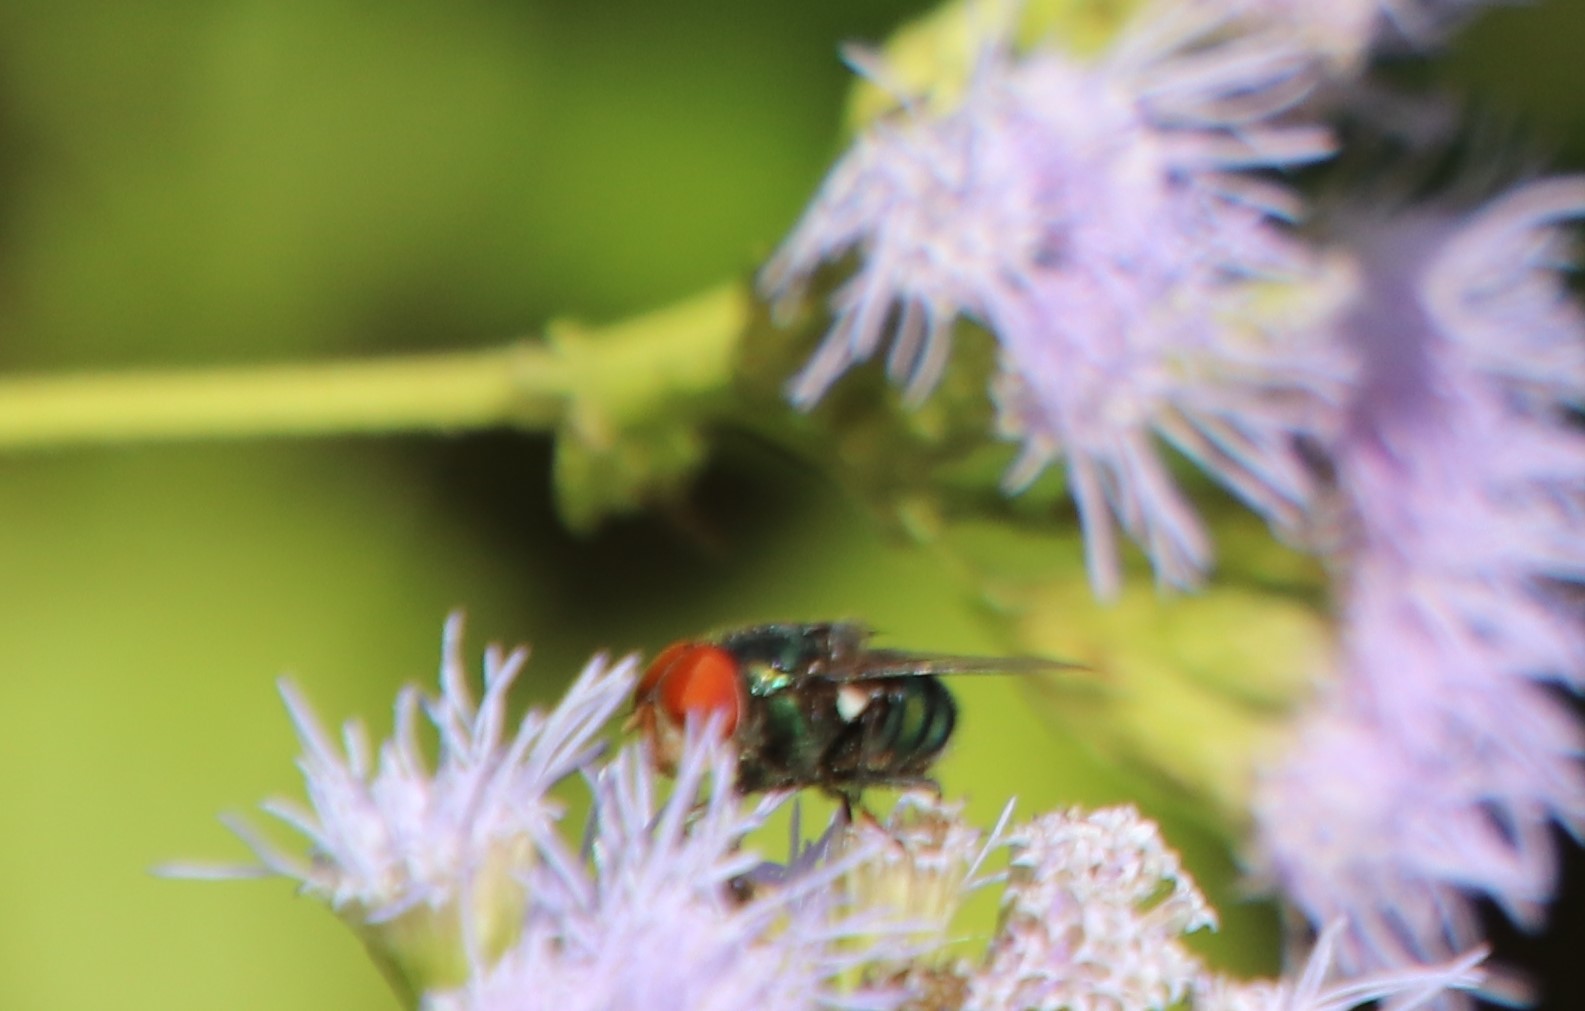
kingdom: Animalia
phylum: Arthropoda
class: Insecta
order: Diptera
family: Calliphoridae
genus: Chrysomya
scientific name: Chrysomya megacephala
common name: Blow fly
